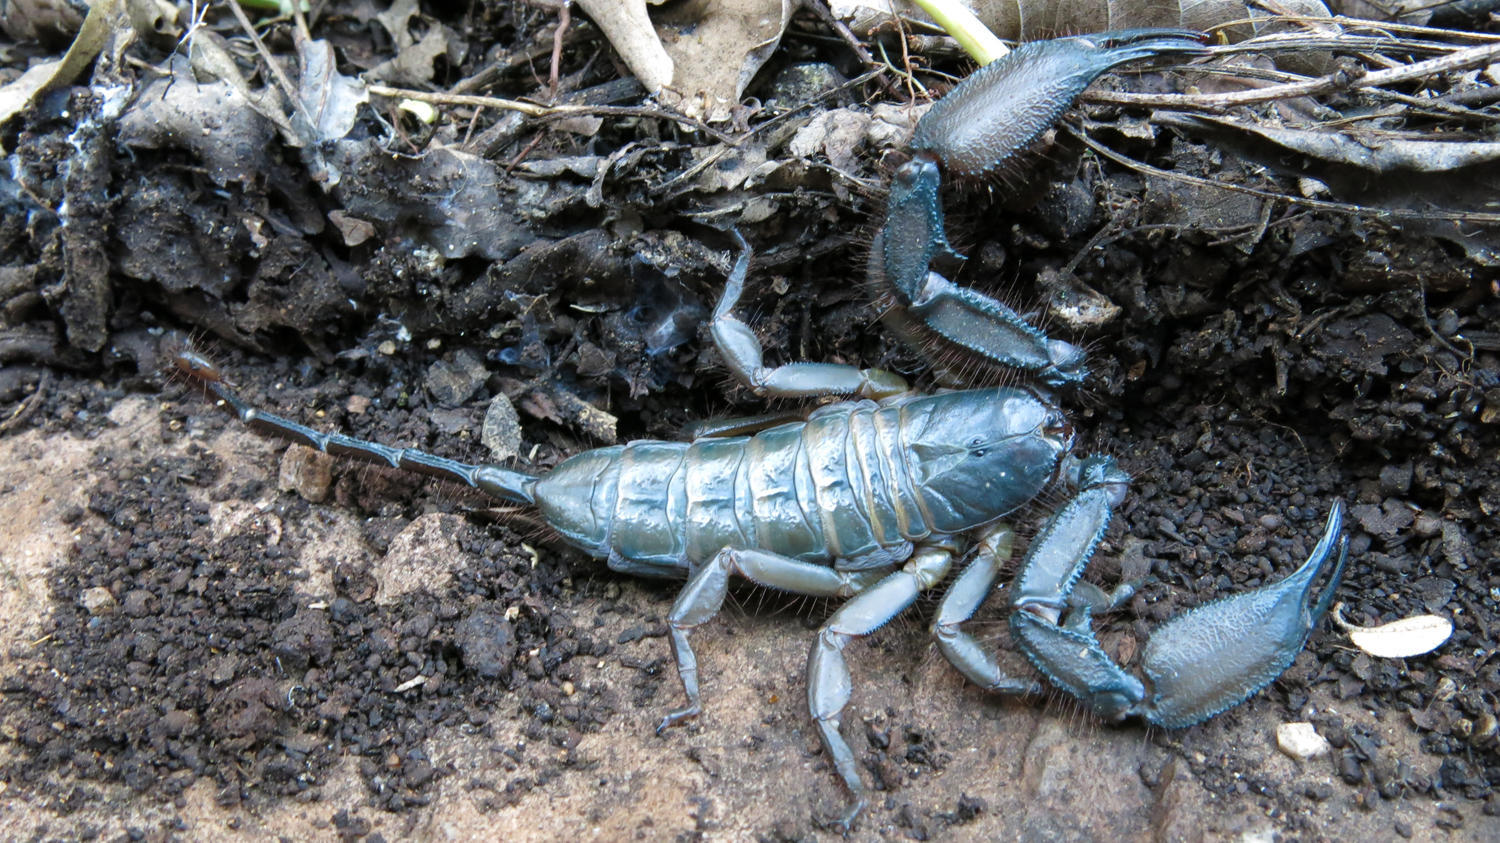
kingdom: Animalia
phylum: Arthropoda
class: Arachnida
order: Scorpiones
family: Hormuridae
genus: Hadogenes
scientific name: Hadogenes soutpansbergensis
